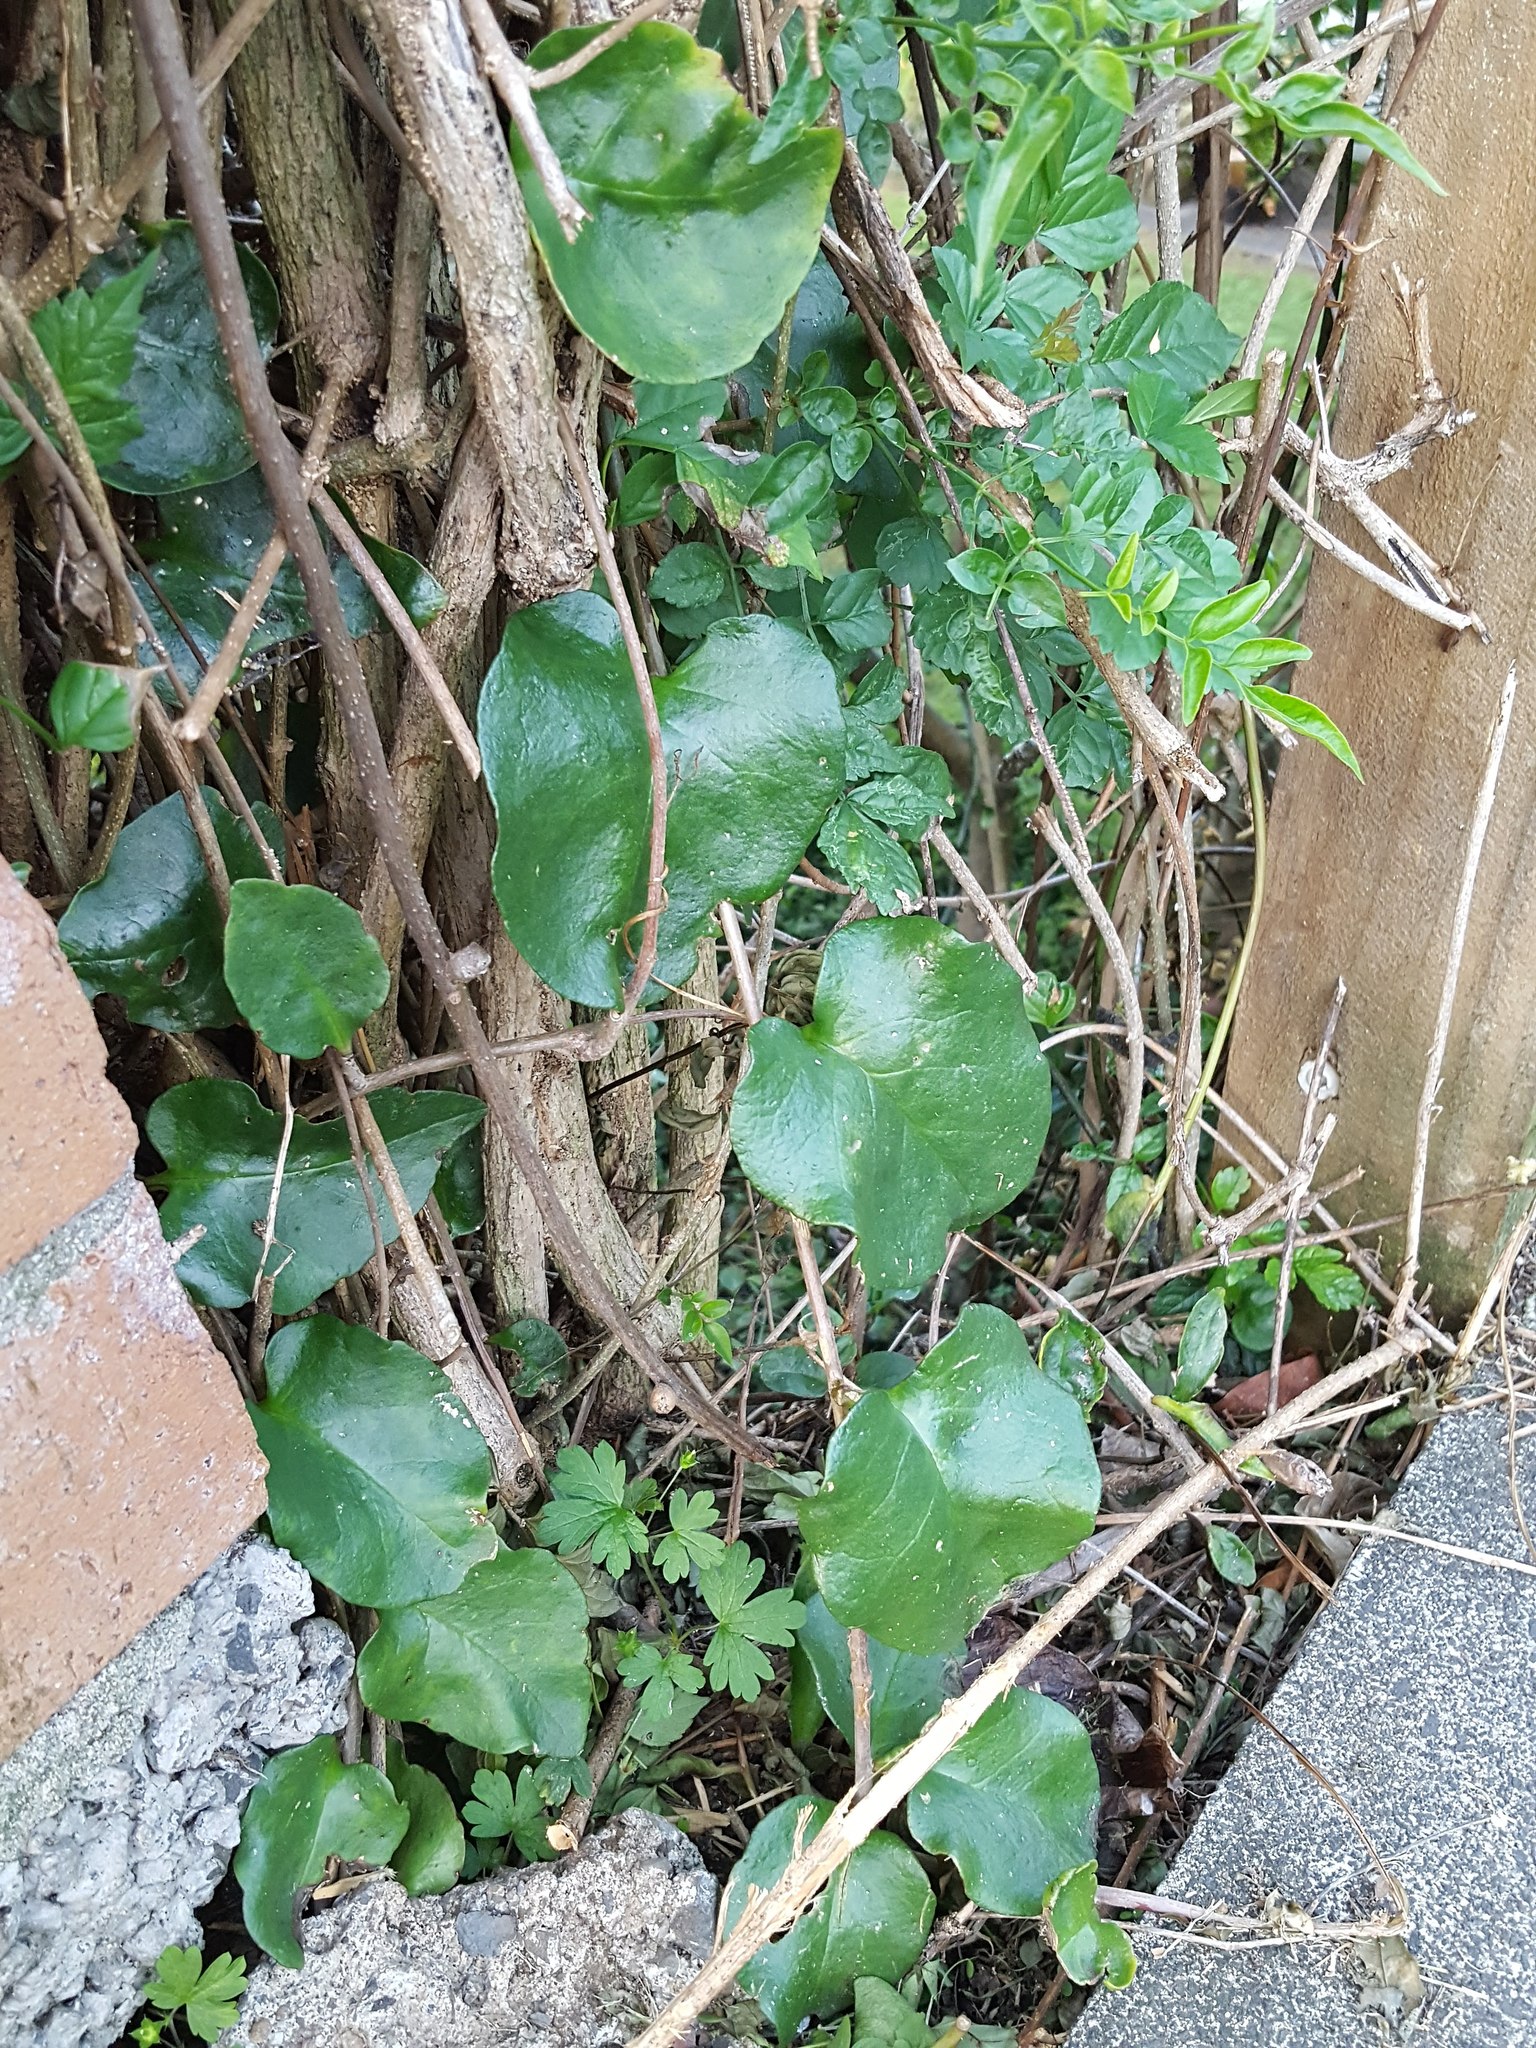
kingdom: Plantae
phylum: Tracheophyta
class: Magnoliopsida
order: Caryophyllales
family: Basellaceae
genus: Anredera
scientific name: Anredera cordifolia
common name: Heartleaf madeiravine
